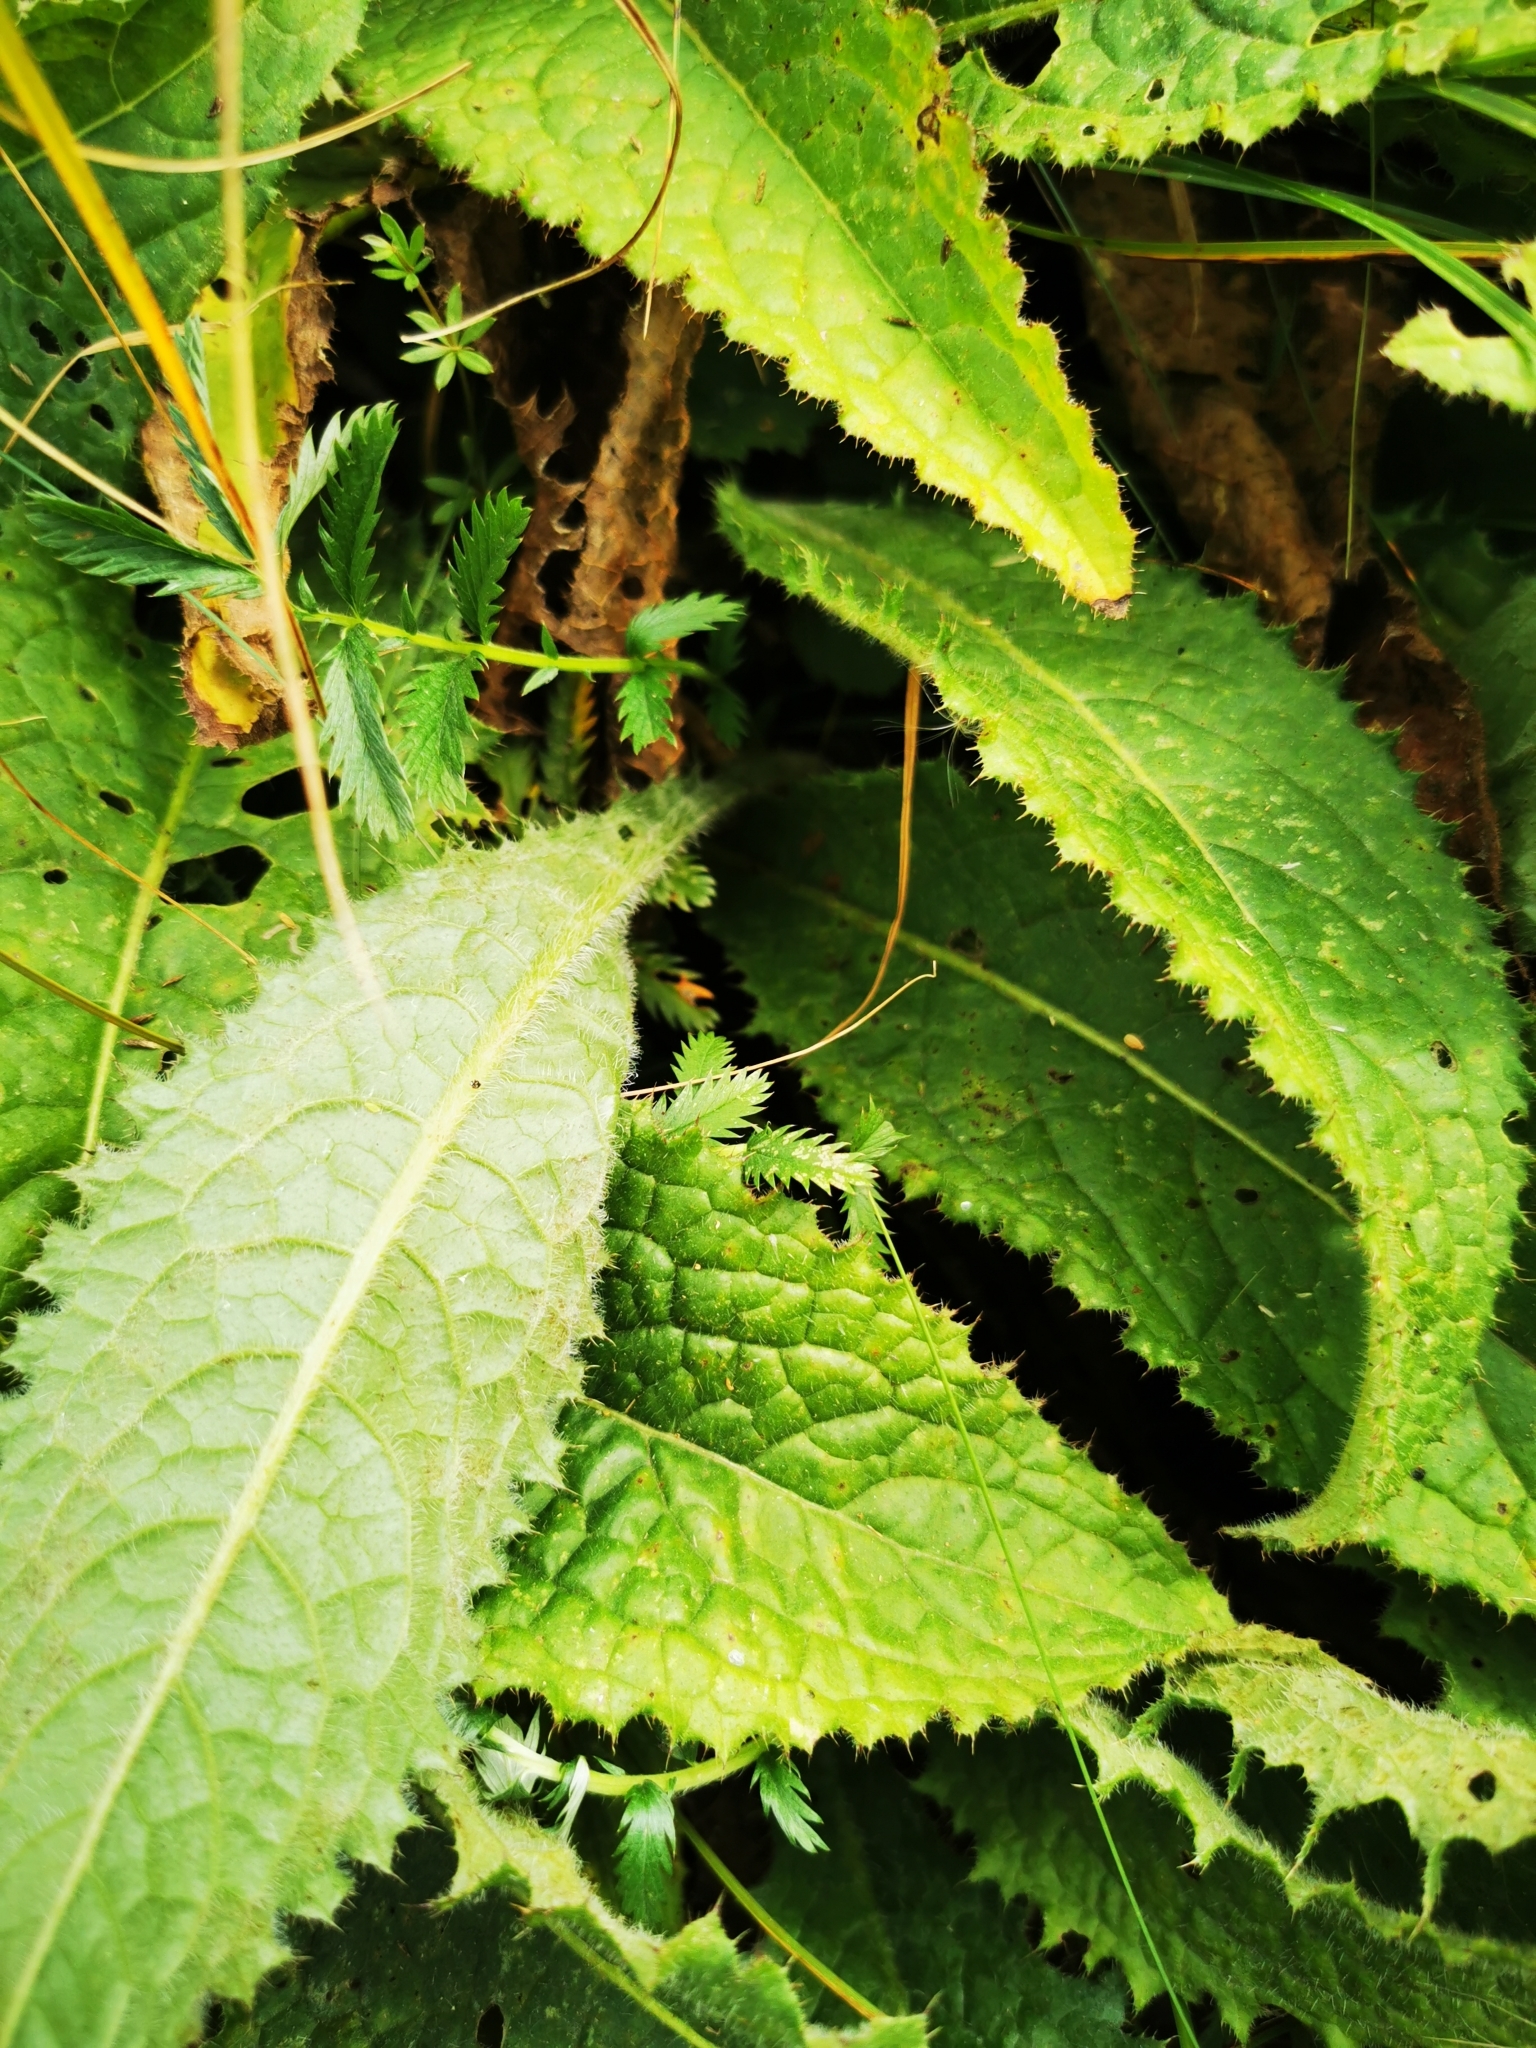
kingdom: Plantae
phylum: Tracheophyta
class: Magnoliopsida
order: Asterales
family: Asteraceae
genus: Cirsium
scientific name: Cirsium rivulare
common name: Brook thistle
